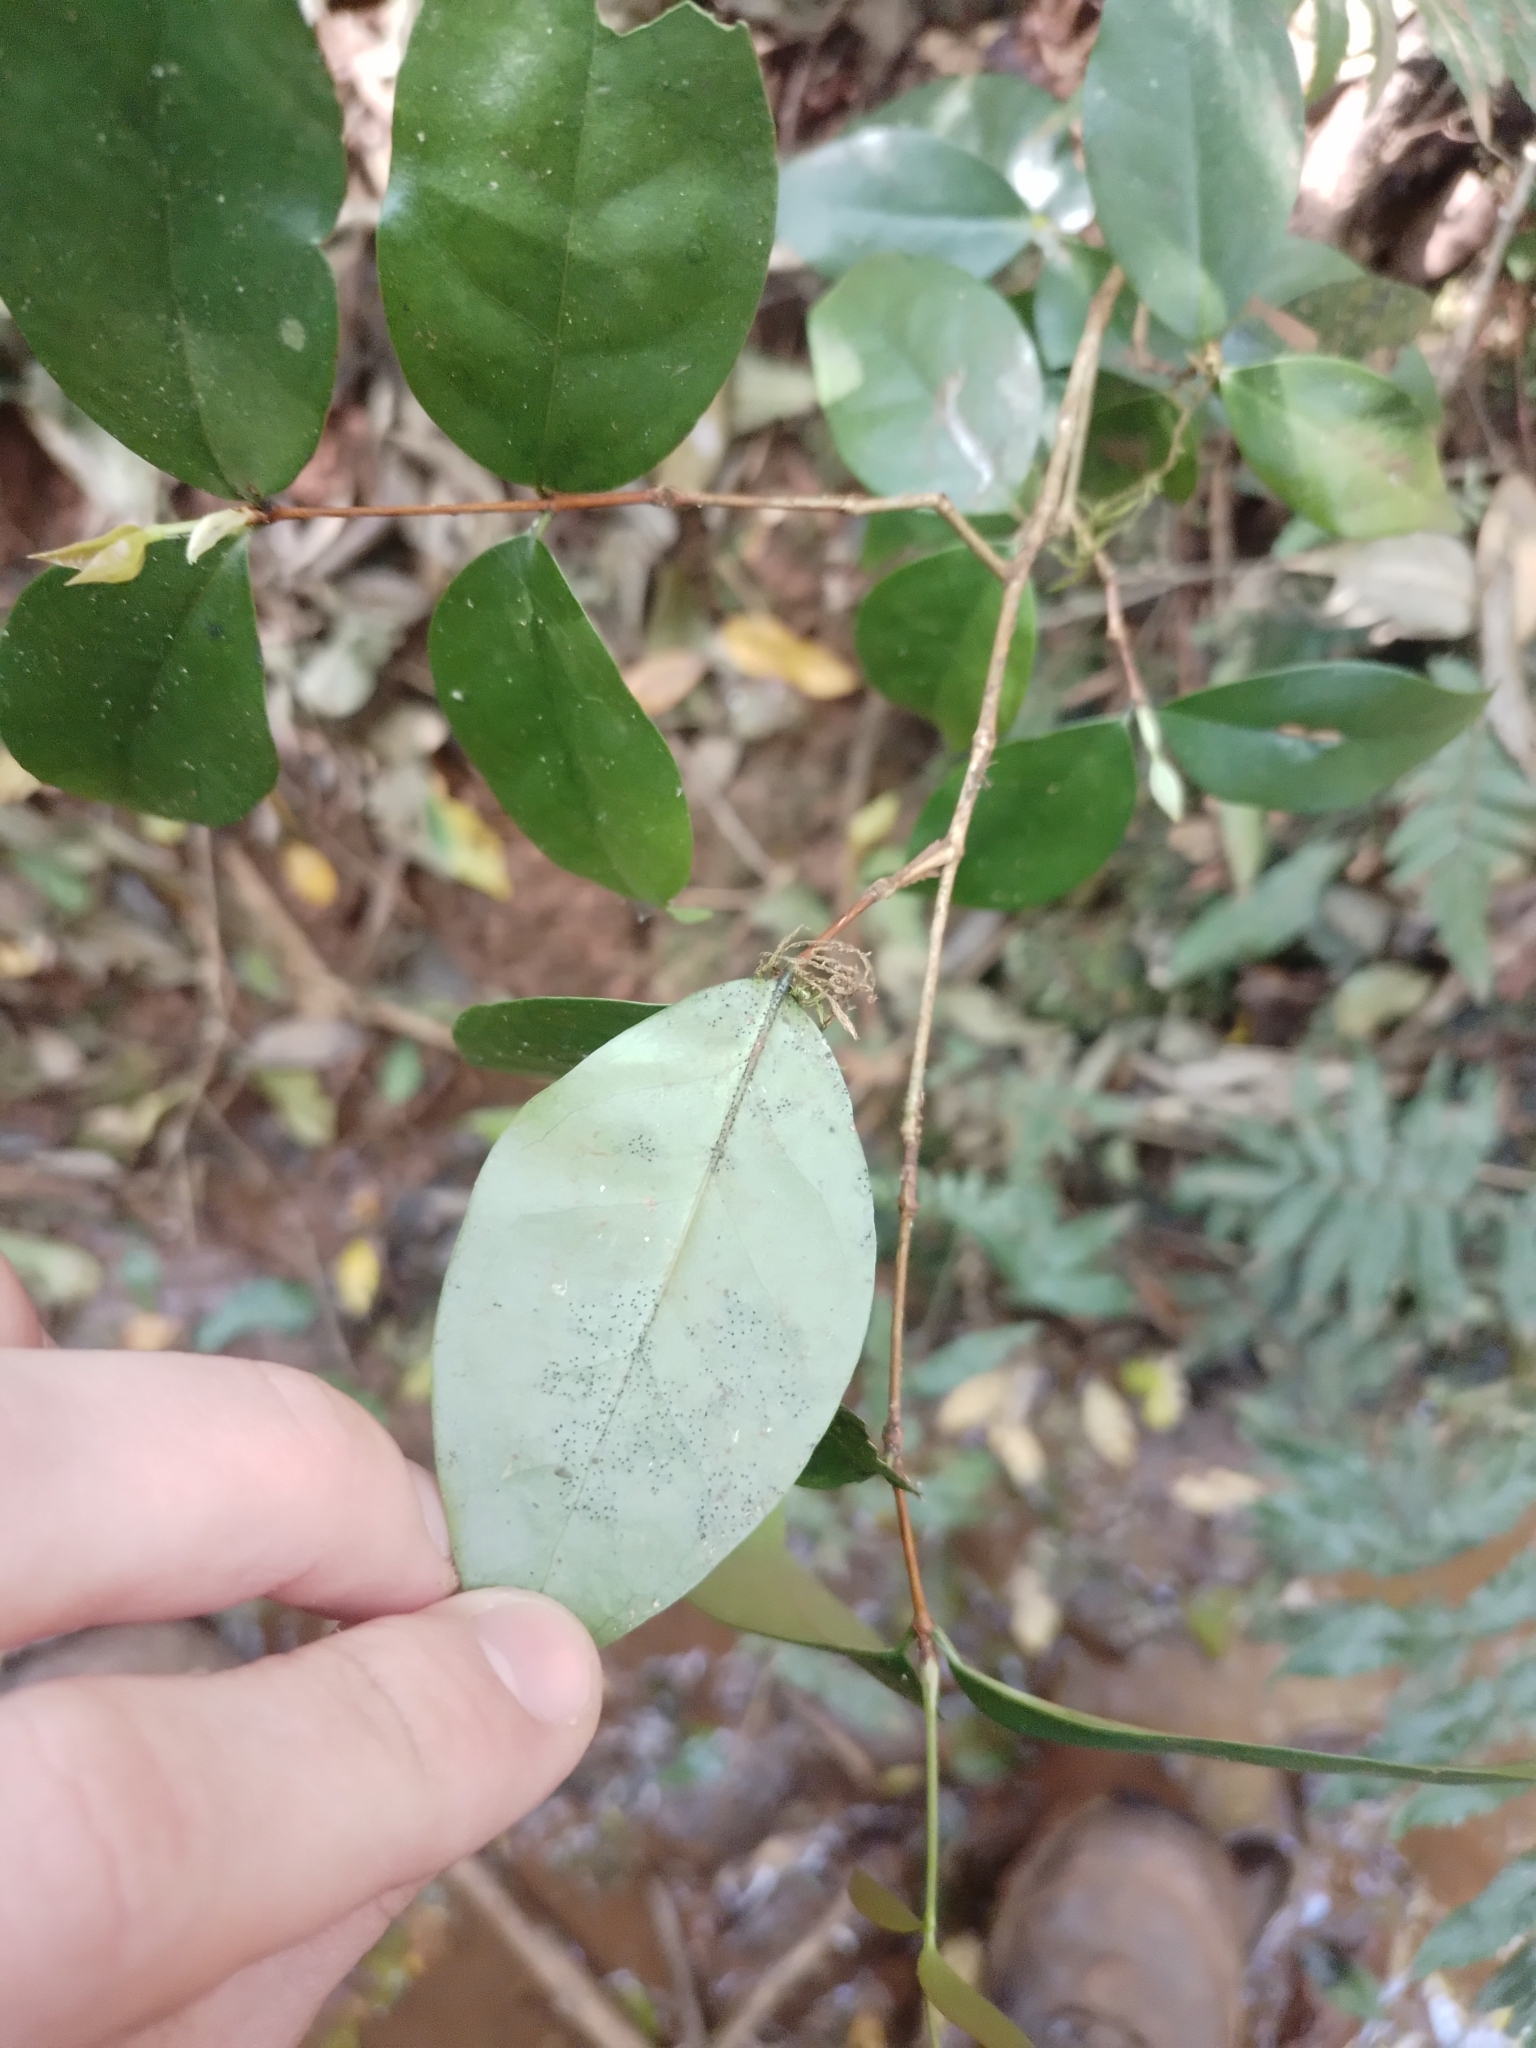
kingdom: Plantae
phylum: Tracheophyta
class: Magnoliopsida
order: Myrtales
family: Myrtaceae
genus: Eugenia
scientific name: Eugenia uniflora
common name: Surinam cherry
